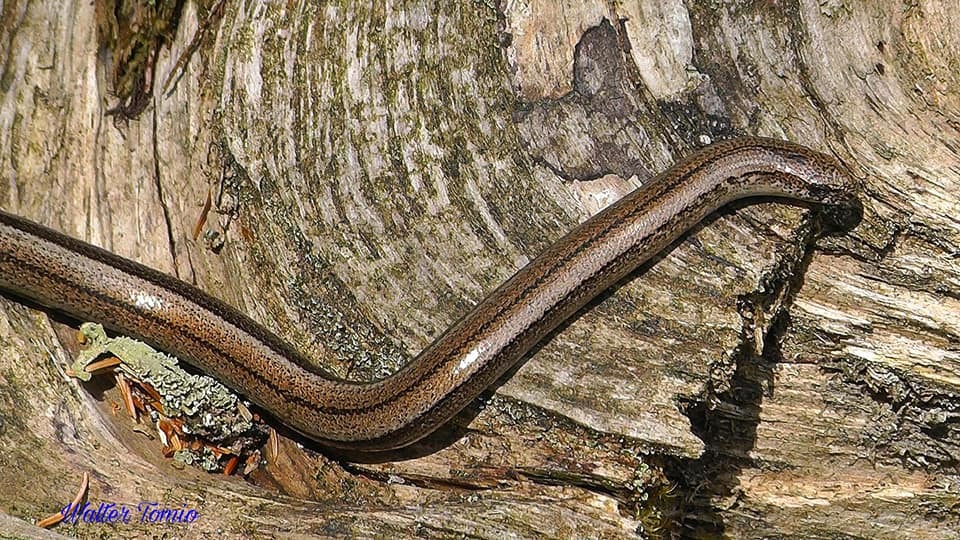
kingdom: Animalia
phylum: Chordata
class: Squamata
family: Anguidae
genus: Anguis
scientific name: Anguis veronensis
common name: Italian slow worm
